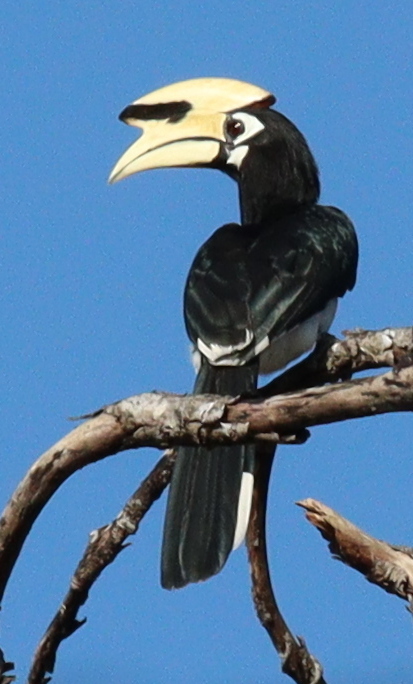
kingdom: Animalia
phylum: Chordata
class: Aves
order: Bucerotiformes
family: Bucerotidae
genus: Anthracoceros
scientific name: Anthracoceros albirostris
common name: Oriental pied-hornbill
